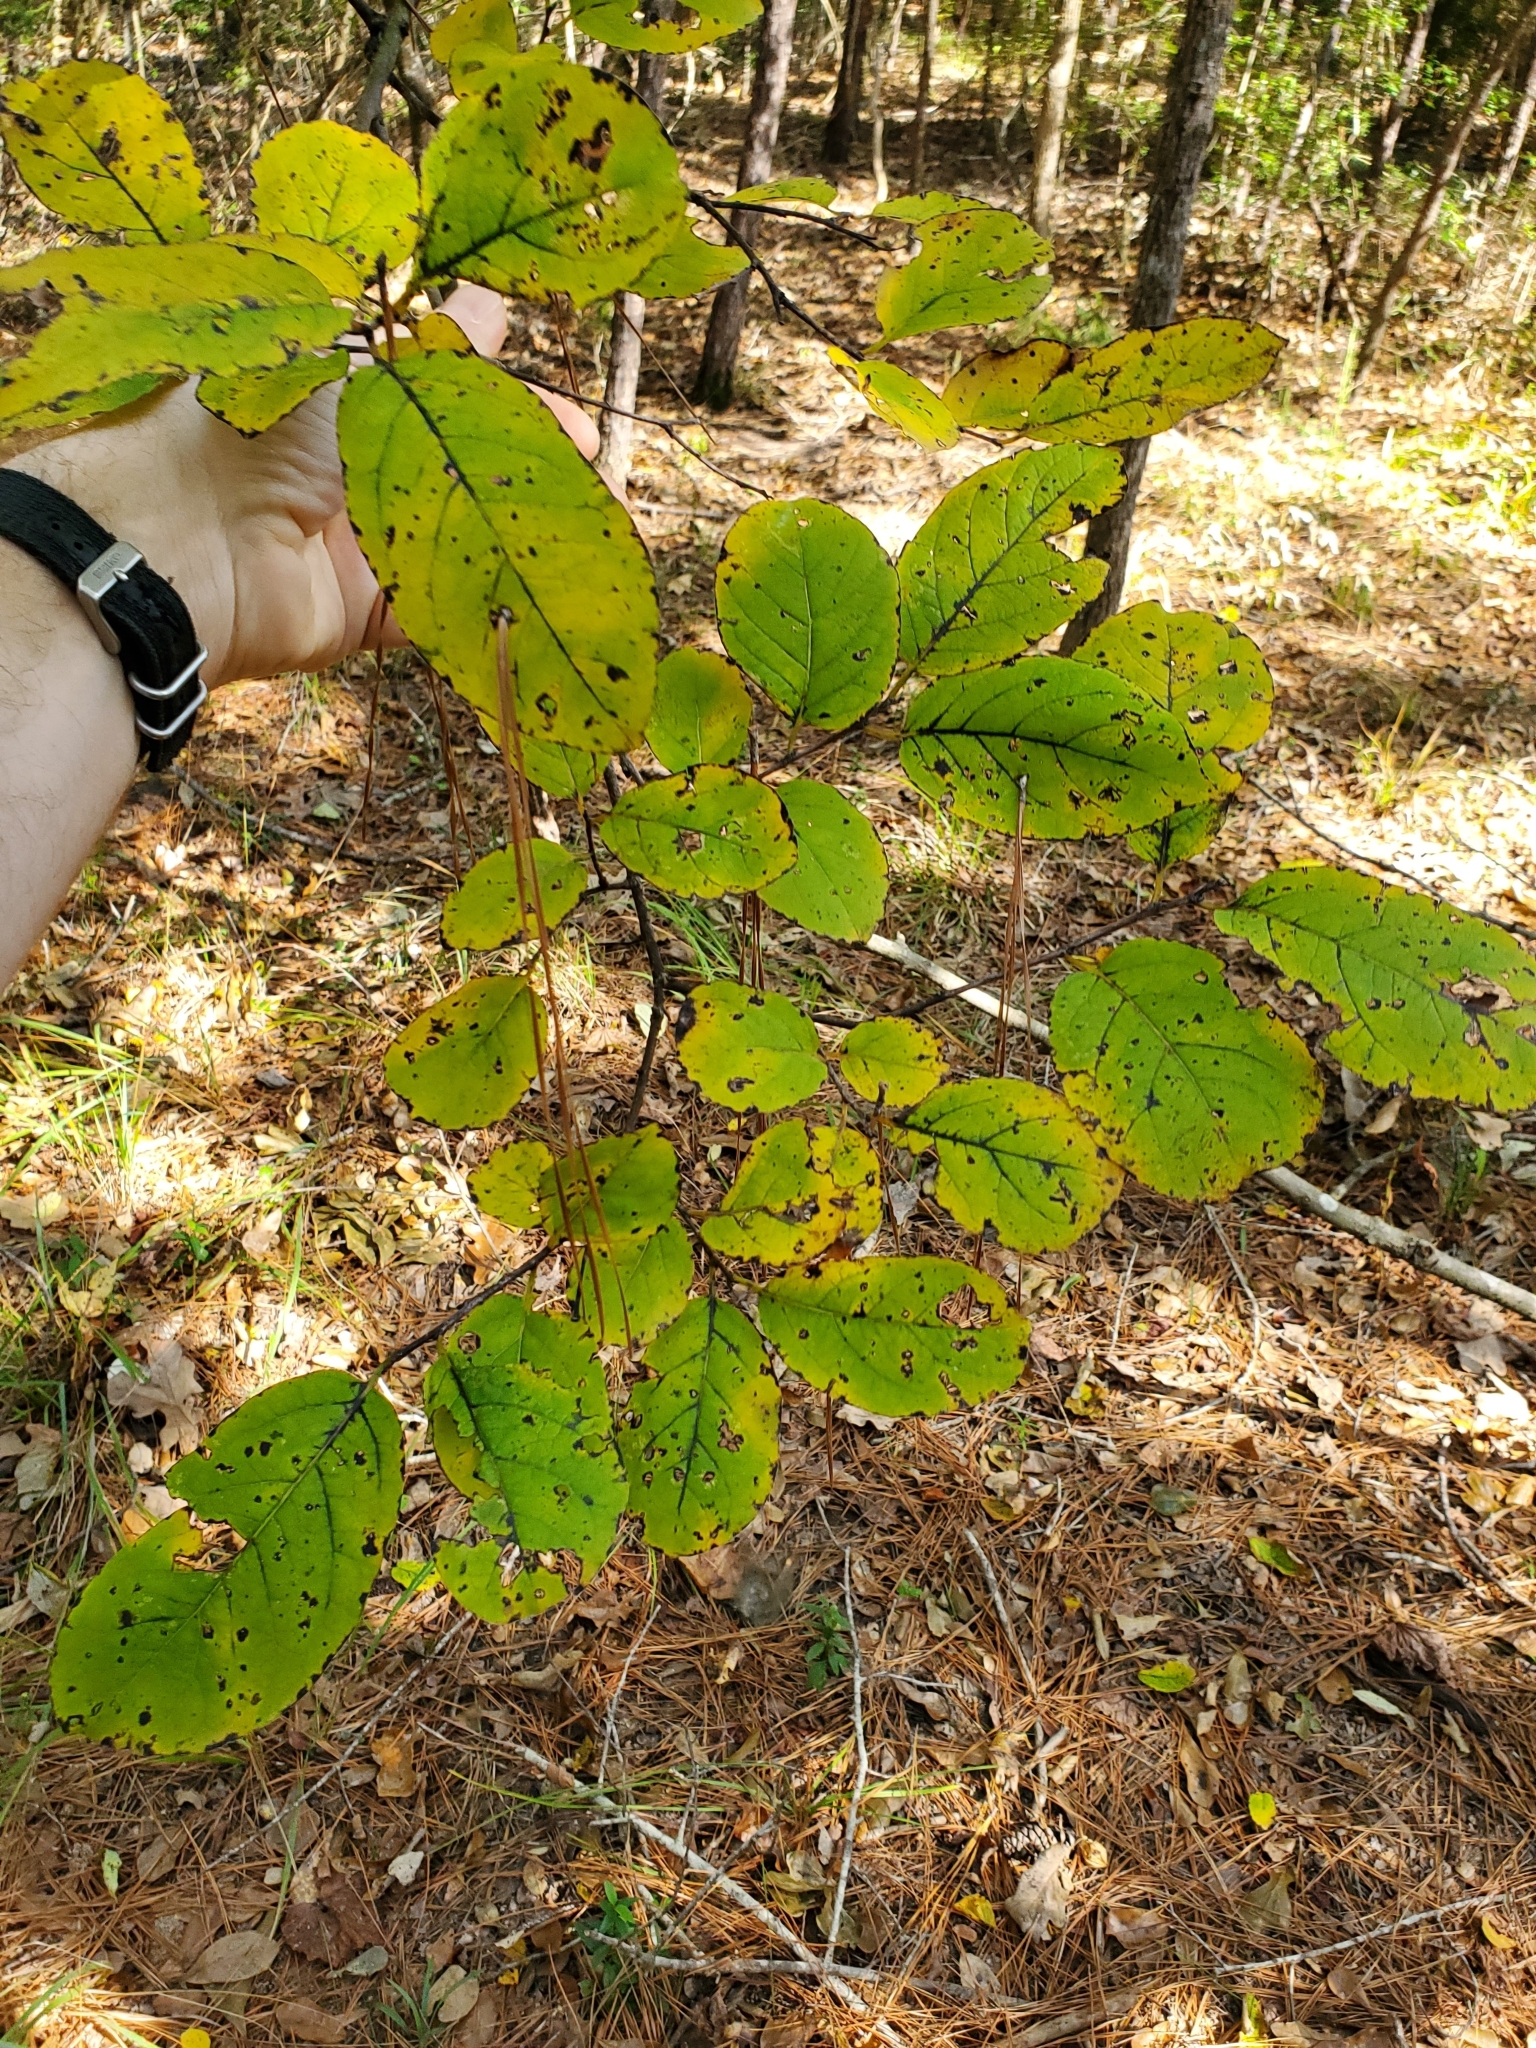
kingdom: Plantae
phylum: Tracheophyta
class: Magnoliopsida
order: Ericales
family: Ebenaceae
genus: Diospyros
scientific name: Diospyros virginiana
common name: Persimmon
